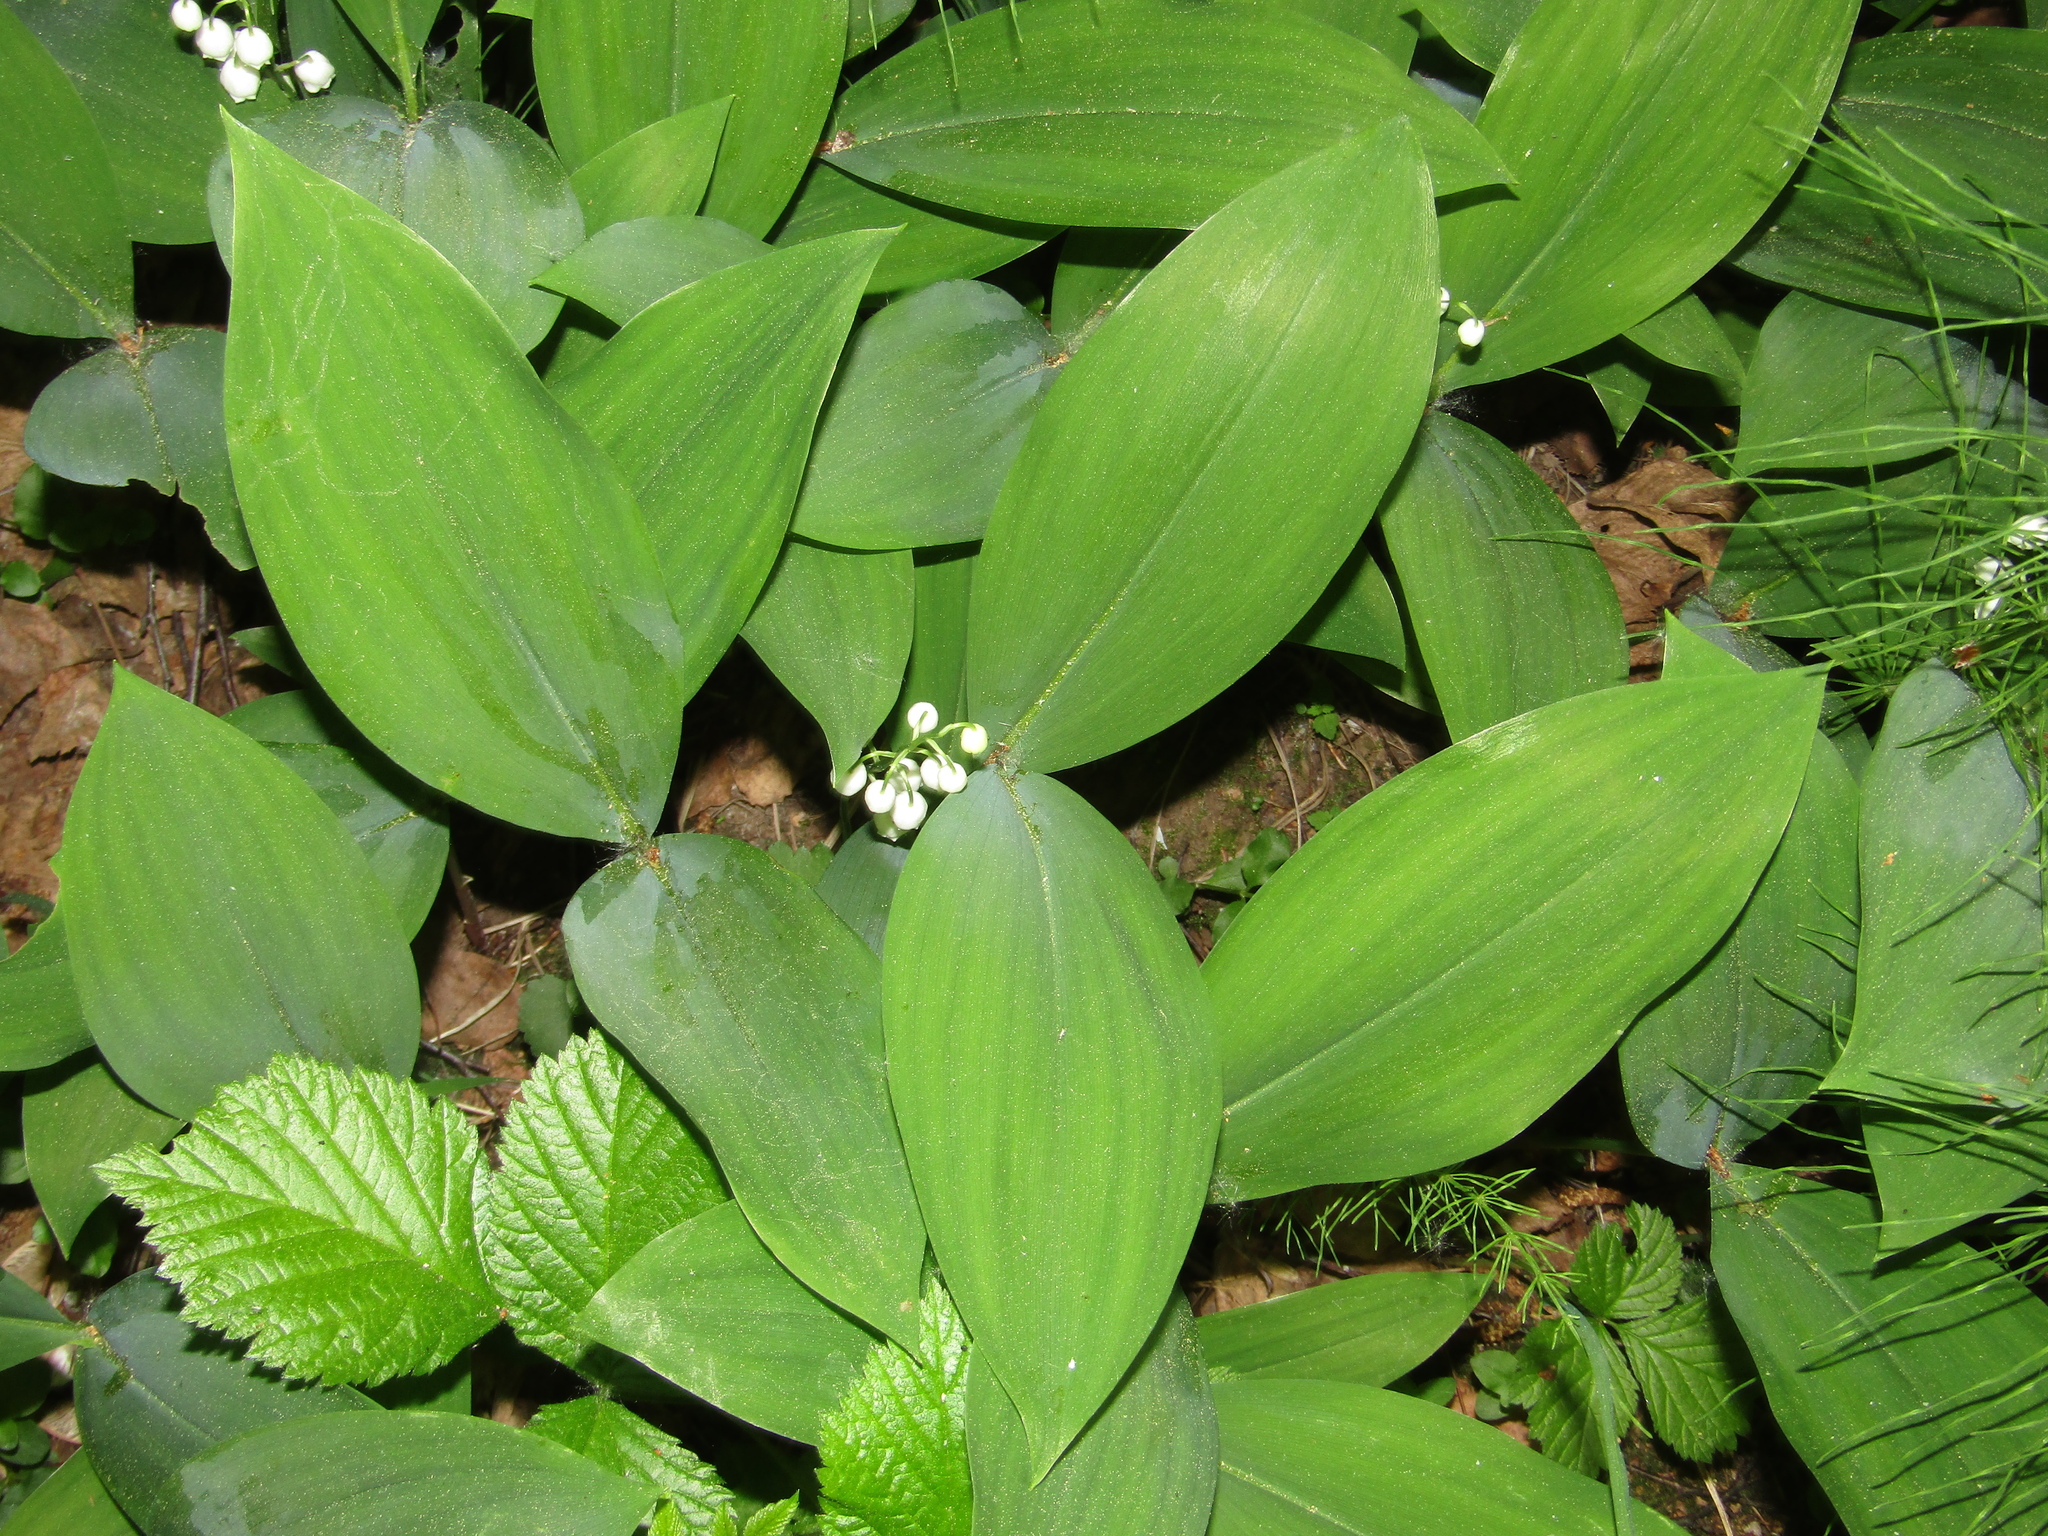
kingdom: Plantae
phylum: Tracheophyta
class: Liliopsida
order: Asparagales
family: Asparagaceae
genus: Convallaria
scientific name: Convallaria majalis
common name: Lily-of-the-valley
